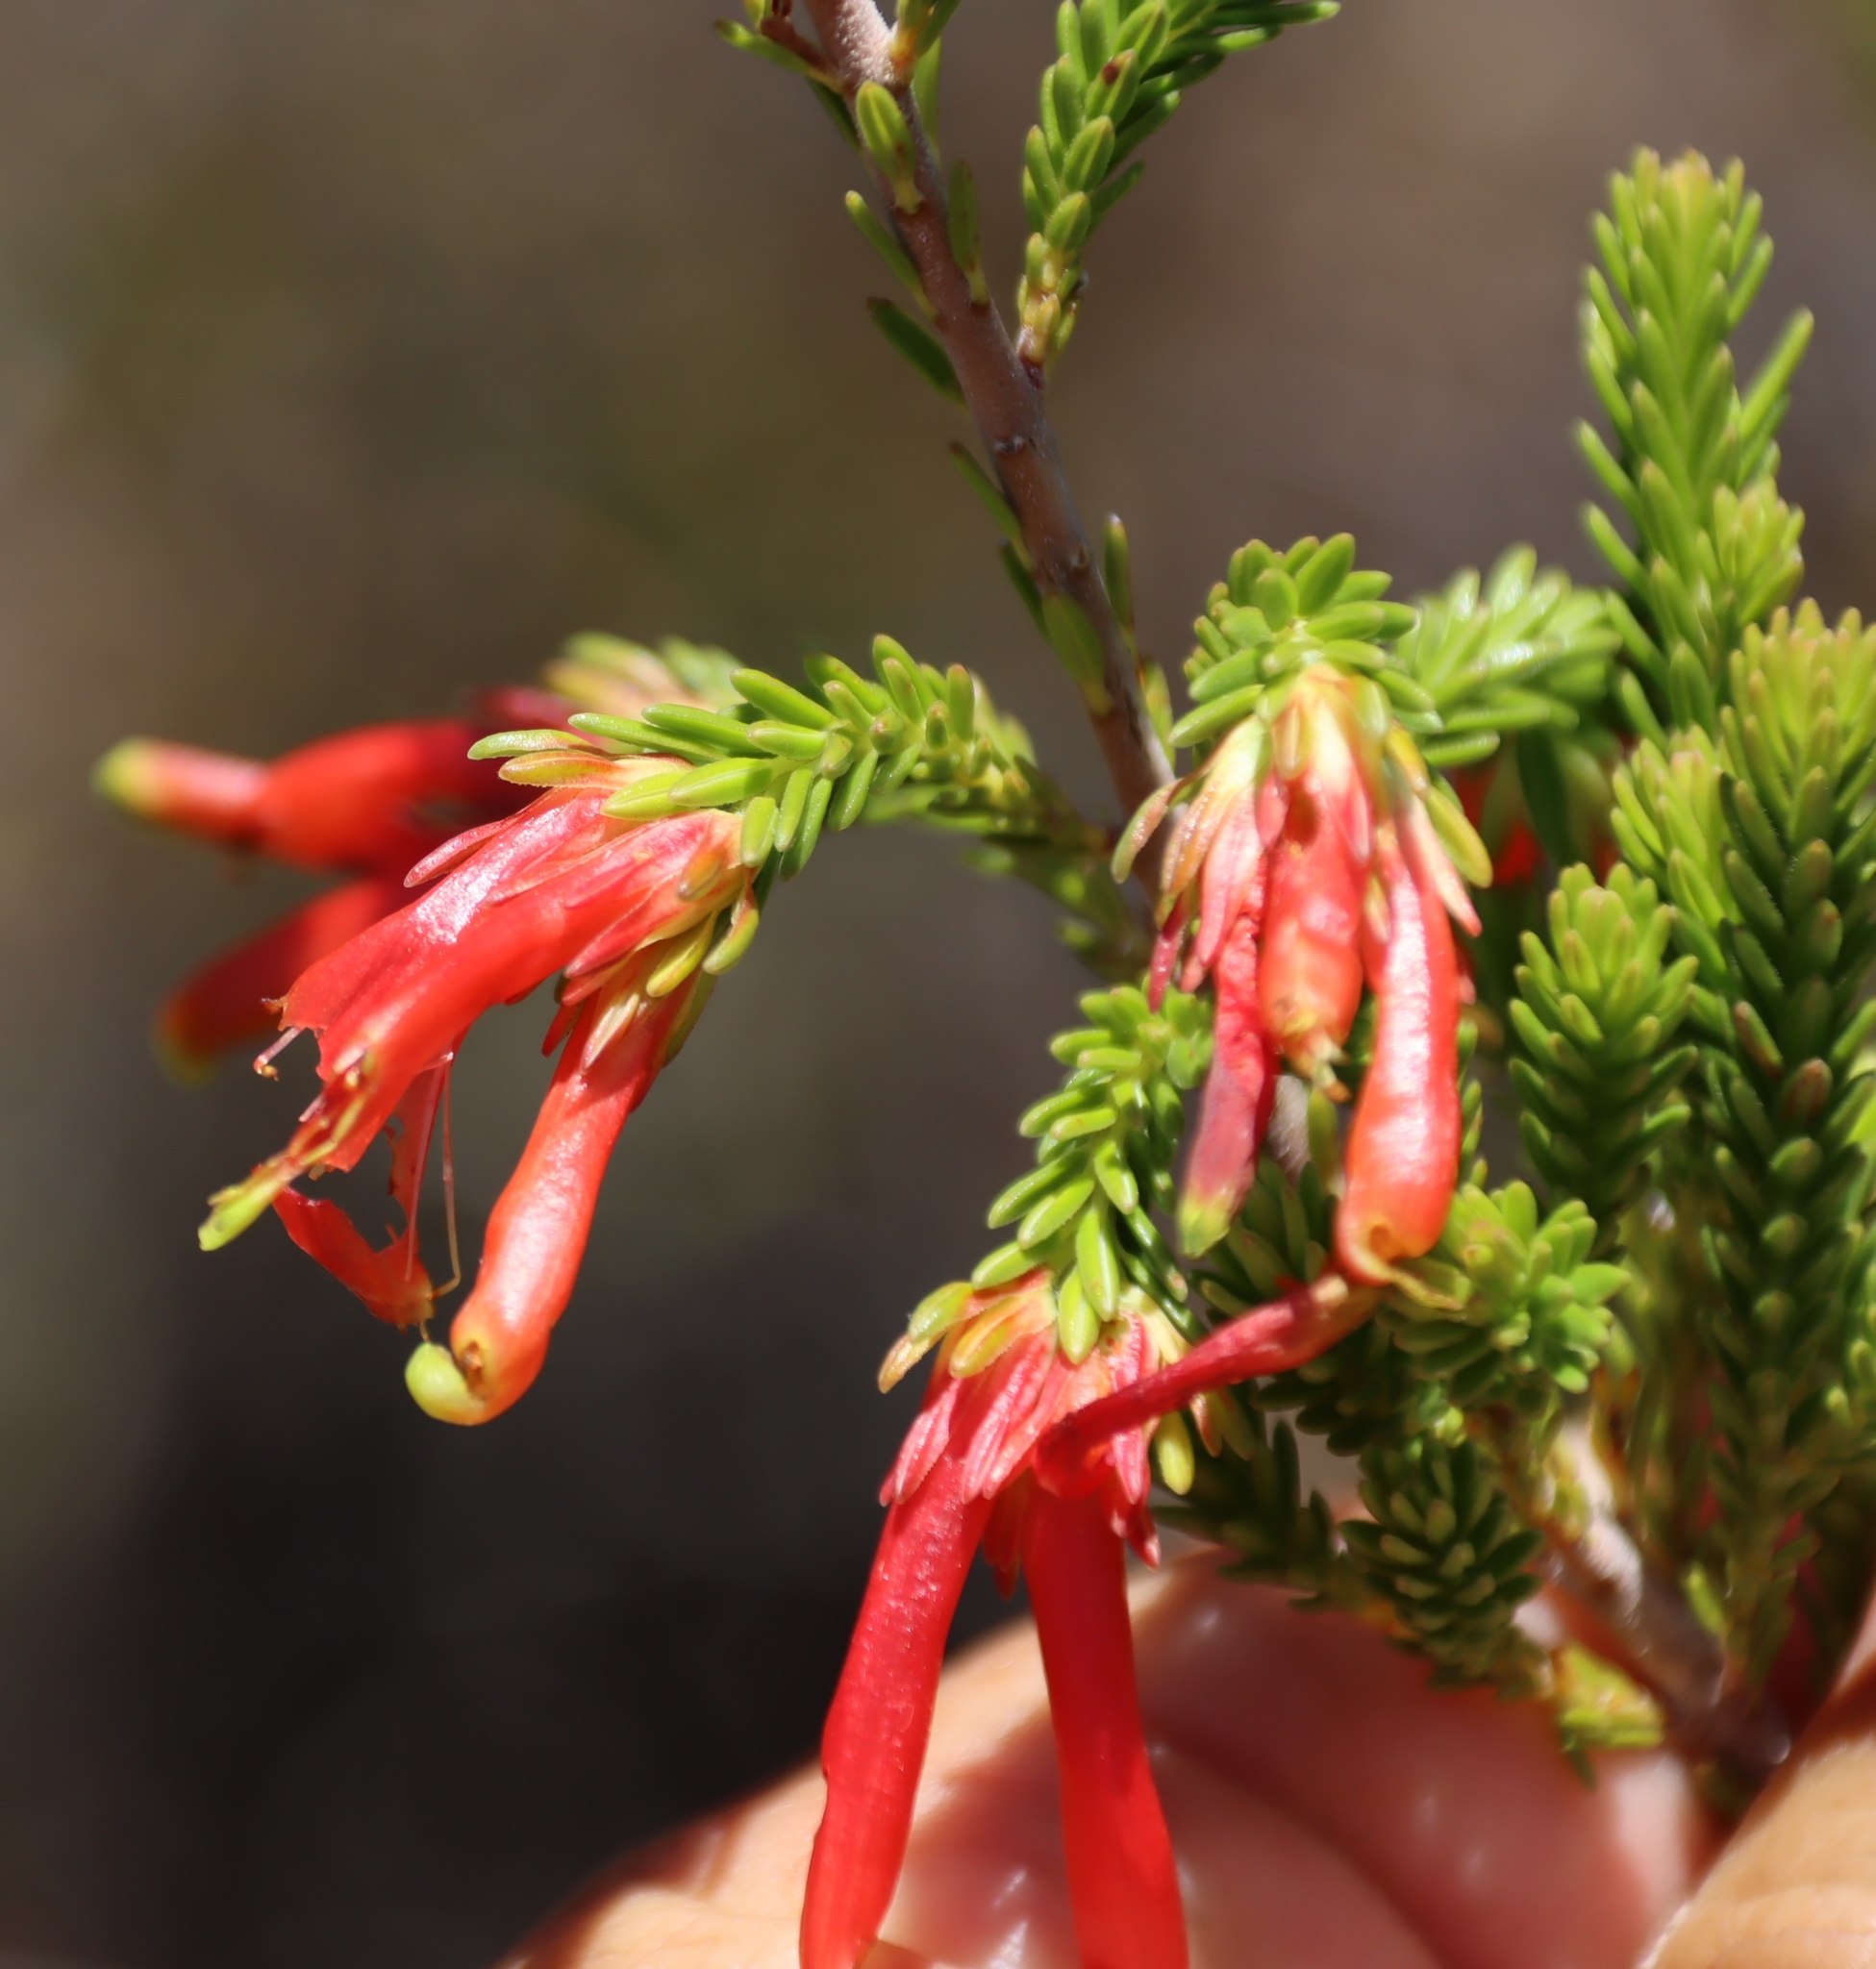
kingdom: Plantae
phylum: Tracheophyta
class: Magnoliopsida
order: Ericales
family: Ericaceae
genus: Erica
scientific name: Erica discolor
